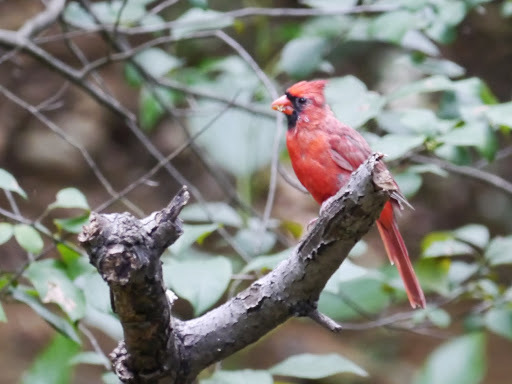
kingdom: Animalia
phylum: Chordata
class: Aves
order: Passeriformes
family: Cardinalidae
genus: Cardinalis
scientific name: Cardinalis cardinalis
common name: Northern cardinal
